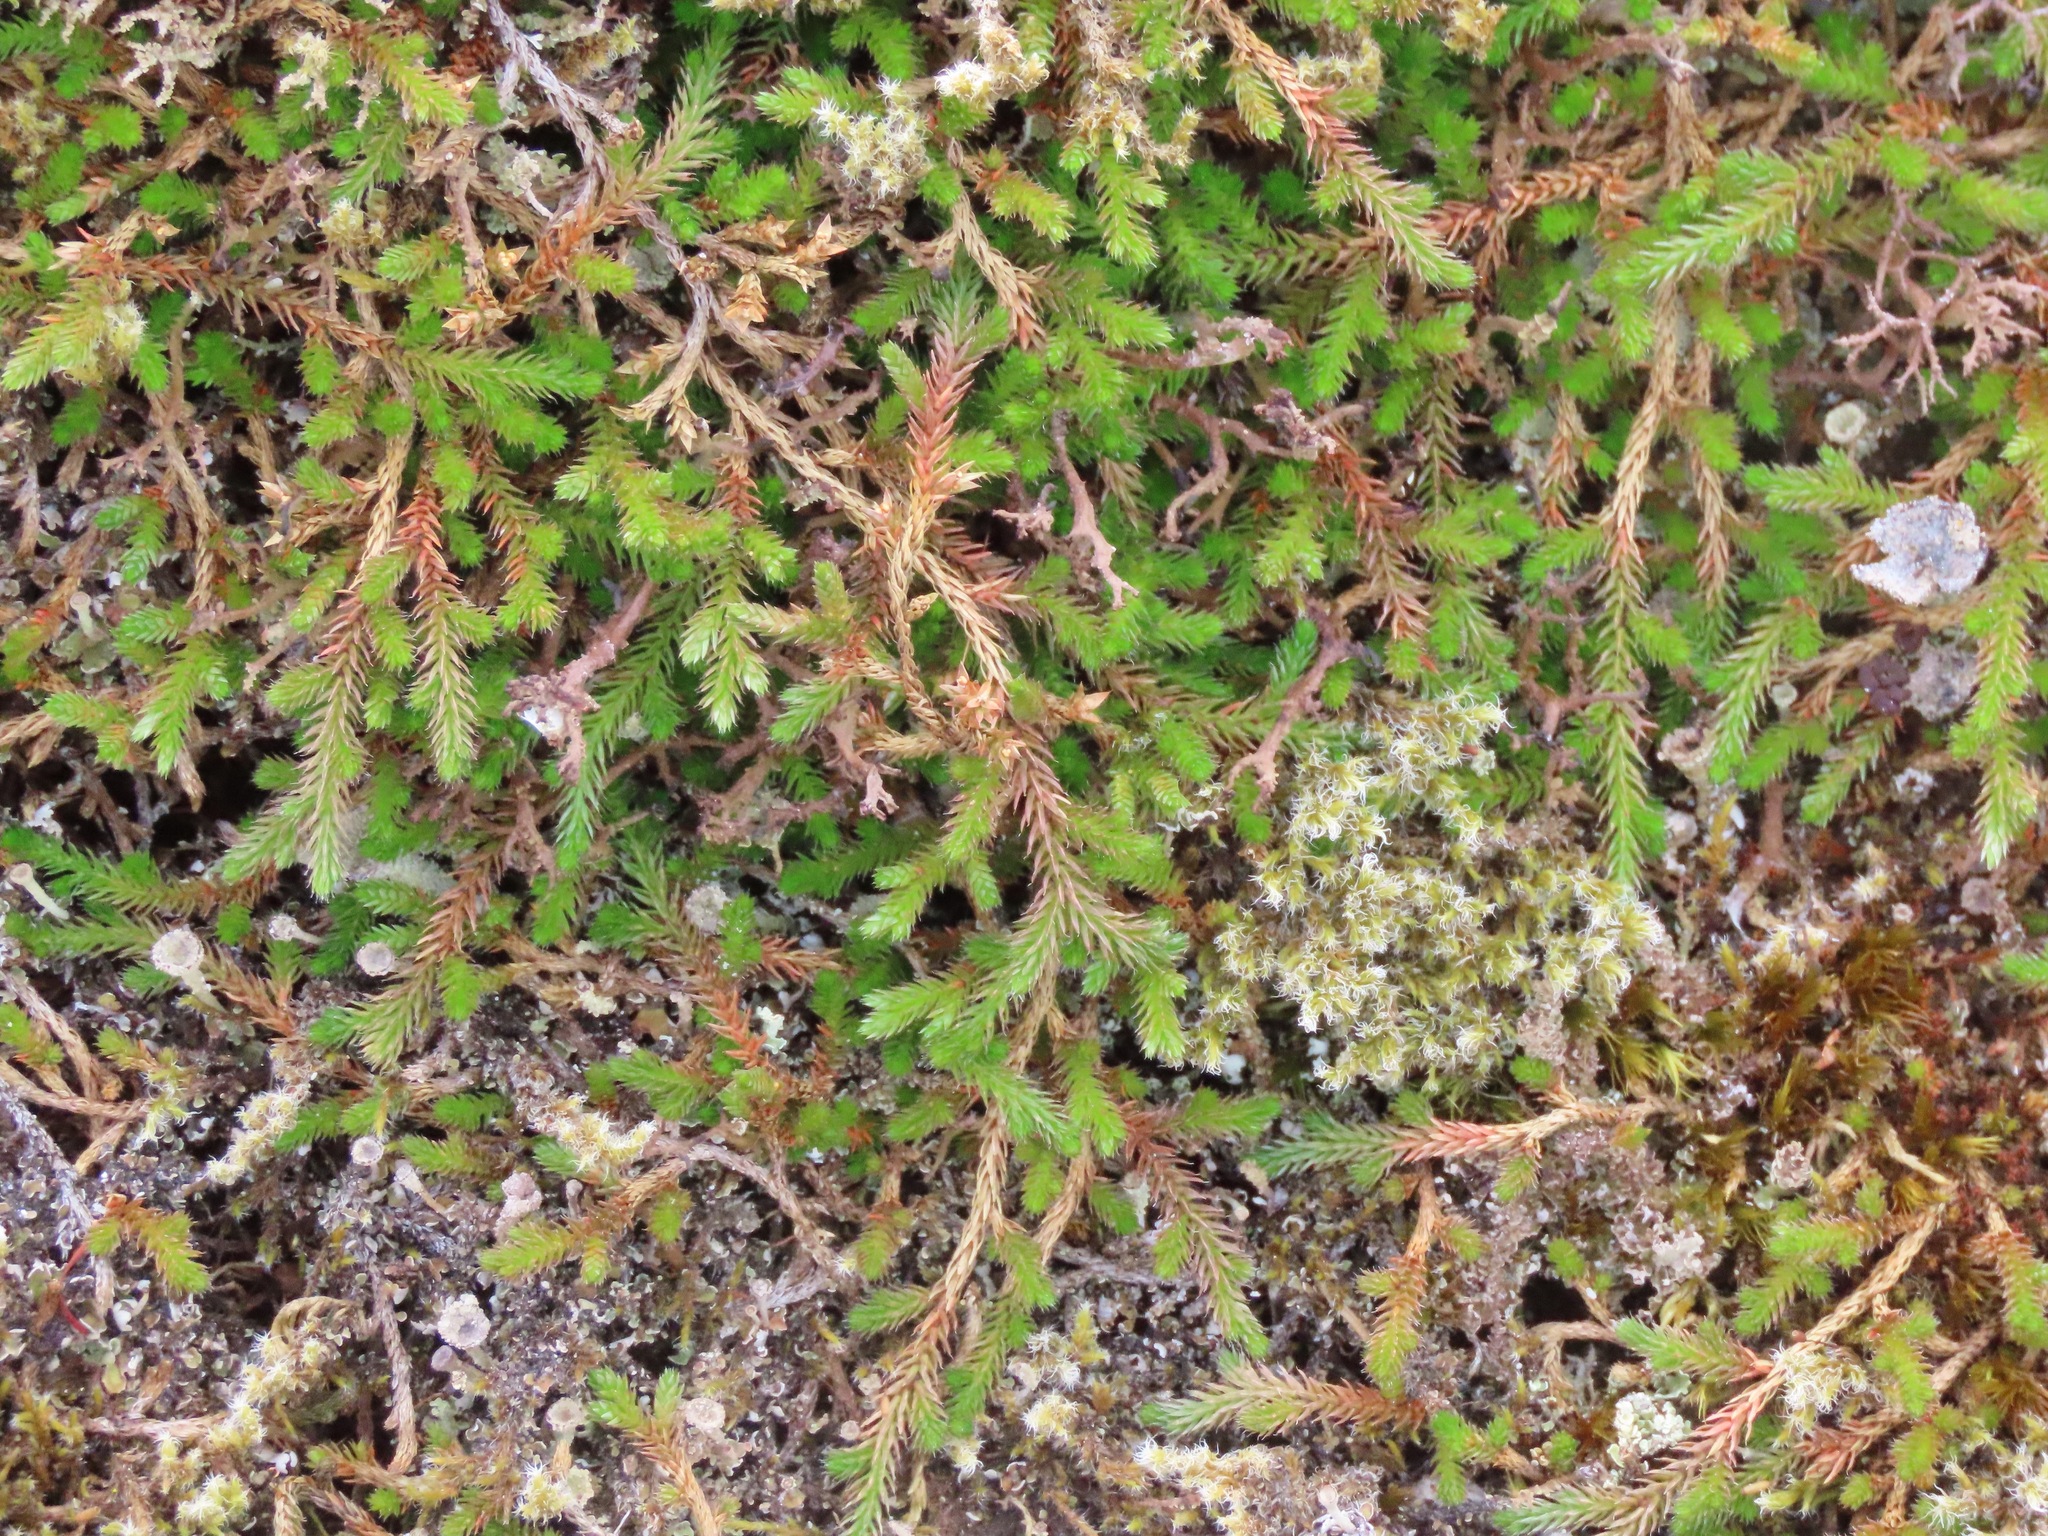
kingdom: Plantae
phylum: Tracheophyta
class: Lycopodiopsida
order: Selaginellales
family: Selaginellaceae
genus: Selaginella
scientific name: Selaginella wallacei
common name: Wallace's selaginella
